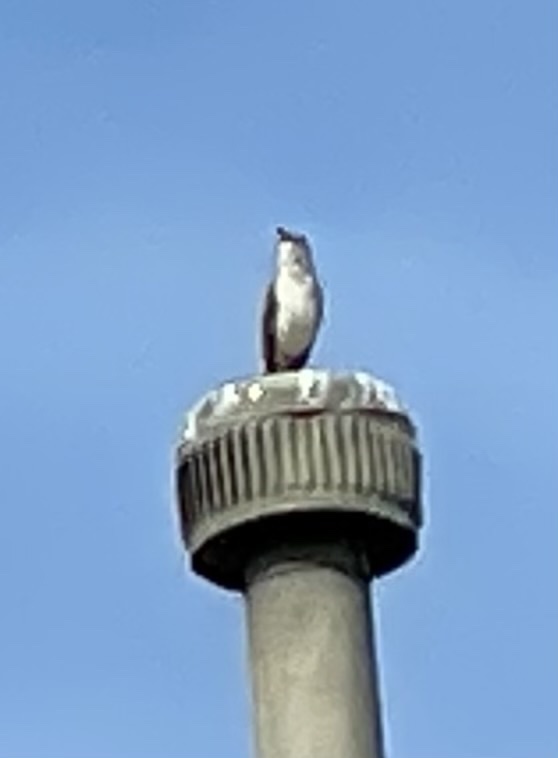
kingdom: Animalia
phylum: Chordata
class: Aves
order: Passeriformes
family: Mimidae
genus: Mimus
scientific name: Mimus polyglottos
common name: Northern mockingbird
